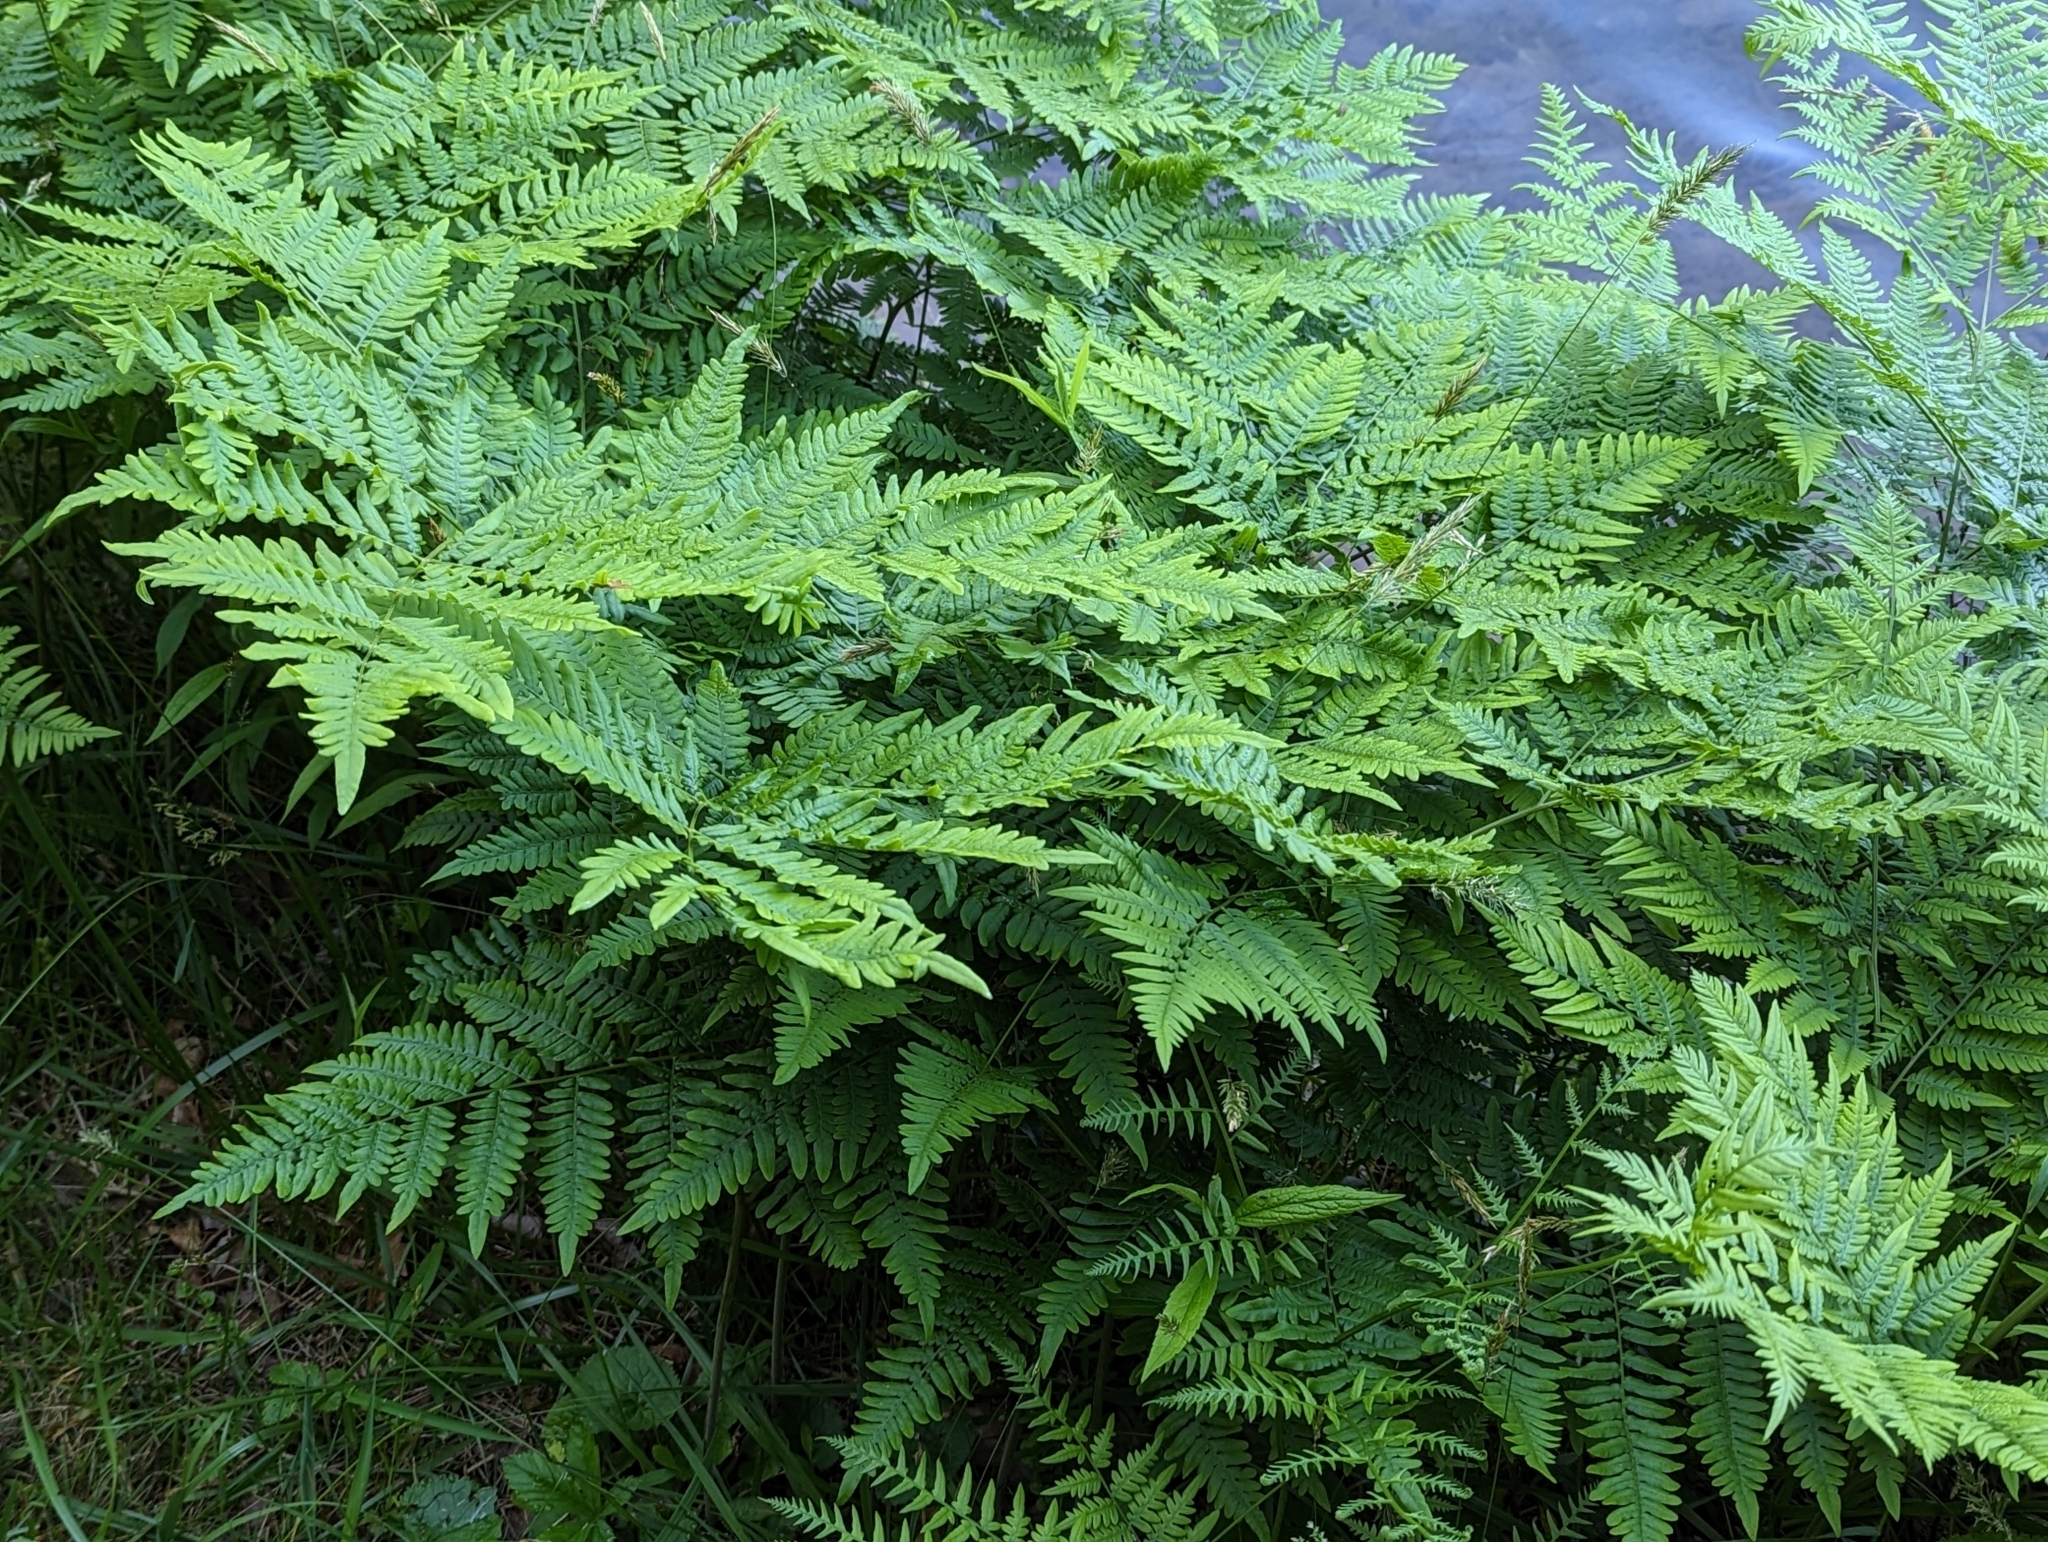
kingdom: Plantae
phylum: Tracheophyta
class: Polypodiopsida
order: Polypodiales
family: Dennstaedtiaceae
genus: Pteridium
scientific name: Pteridium aquilinum
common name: Bracken
